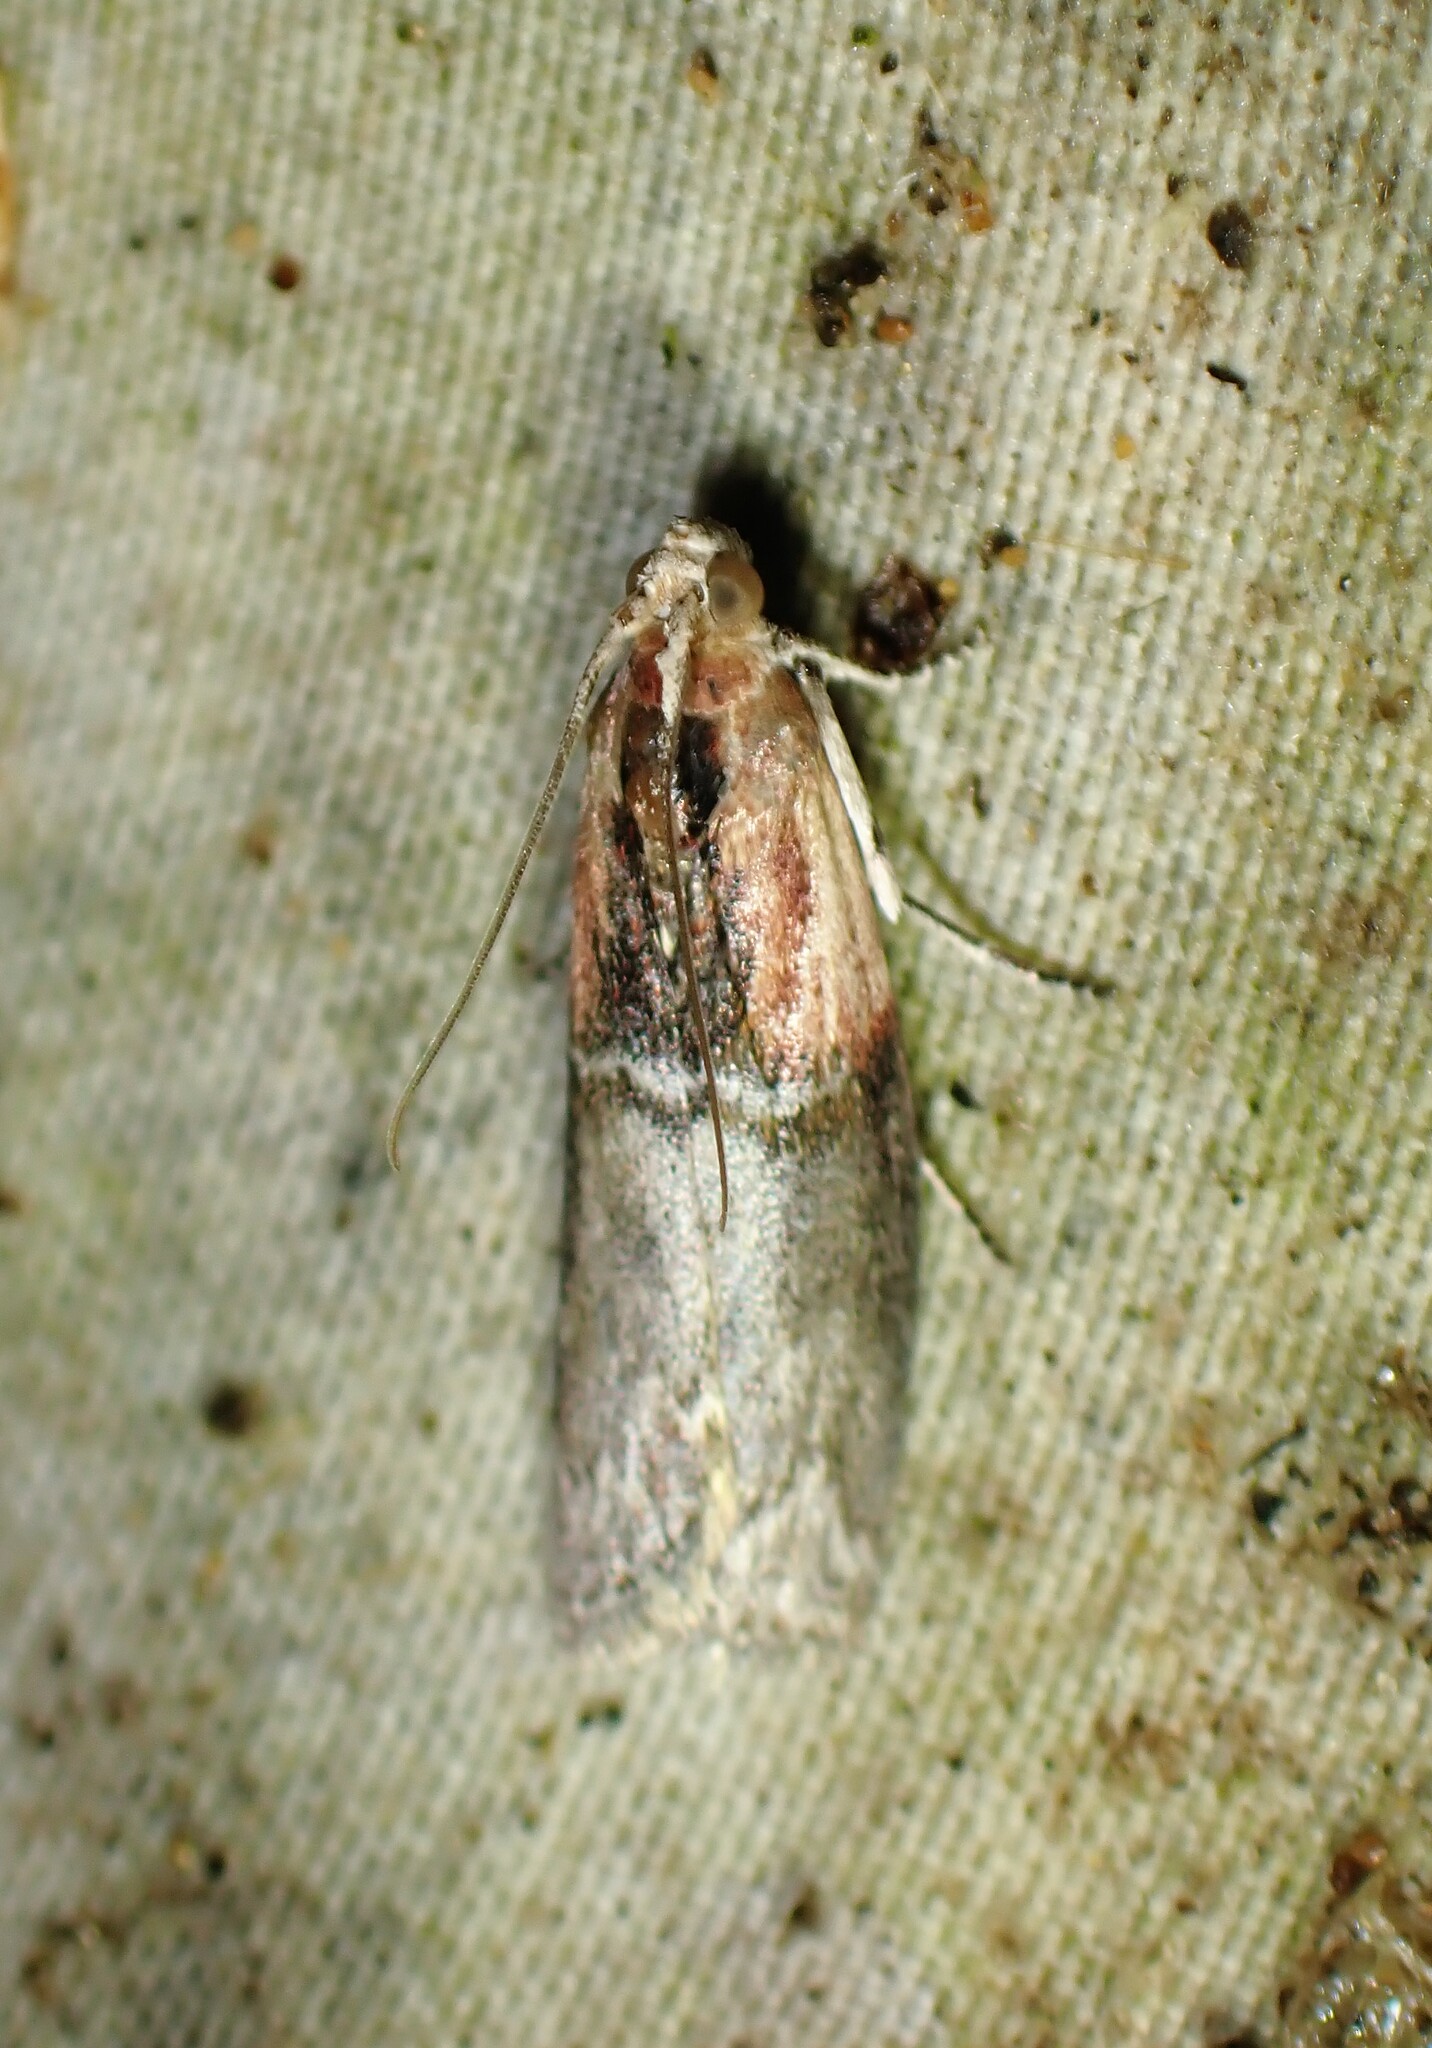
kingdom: Animalia
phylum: Arthropoda
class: Insecta
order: Lepidoptera
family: Pyralidae
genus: Sciota
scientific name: Sciota basilaris
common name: Yellow-shouldered leafroller
